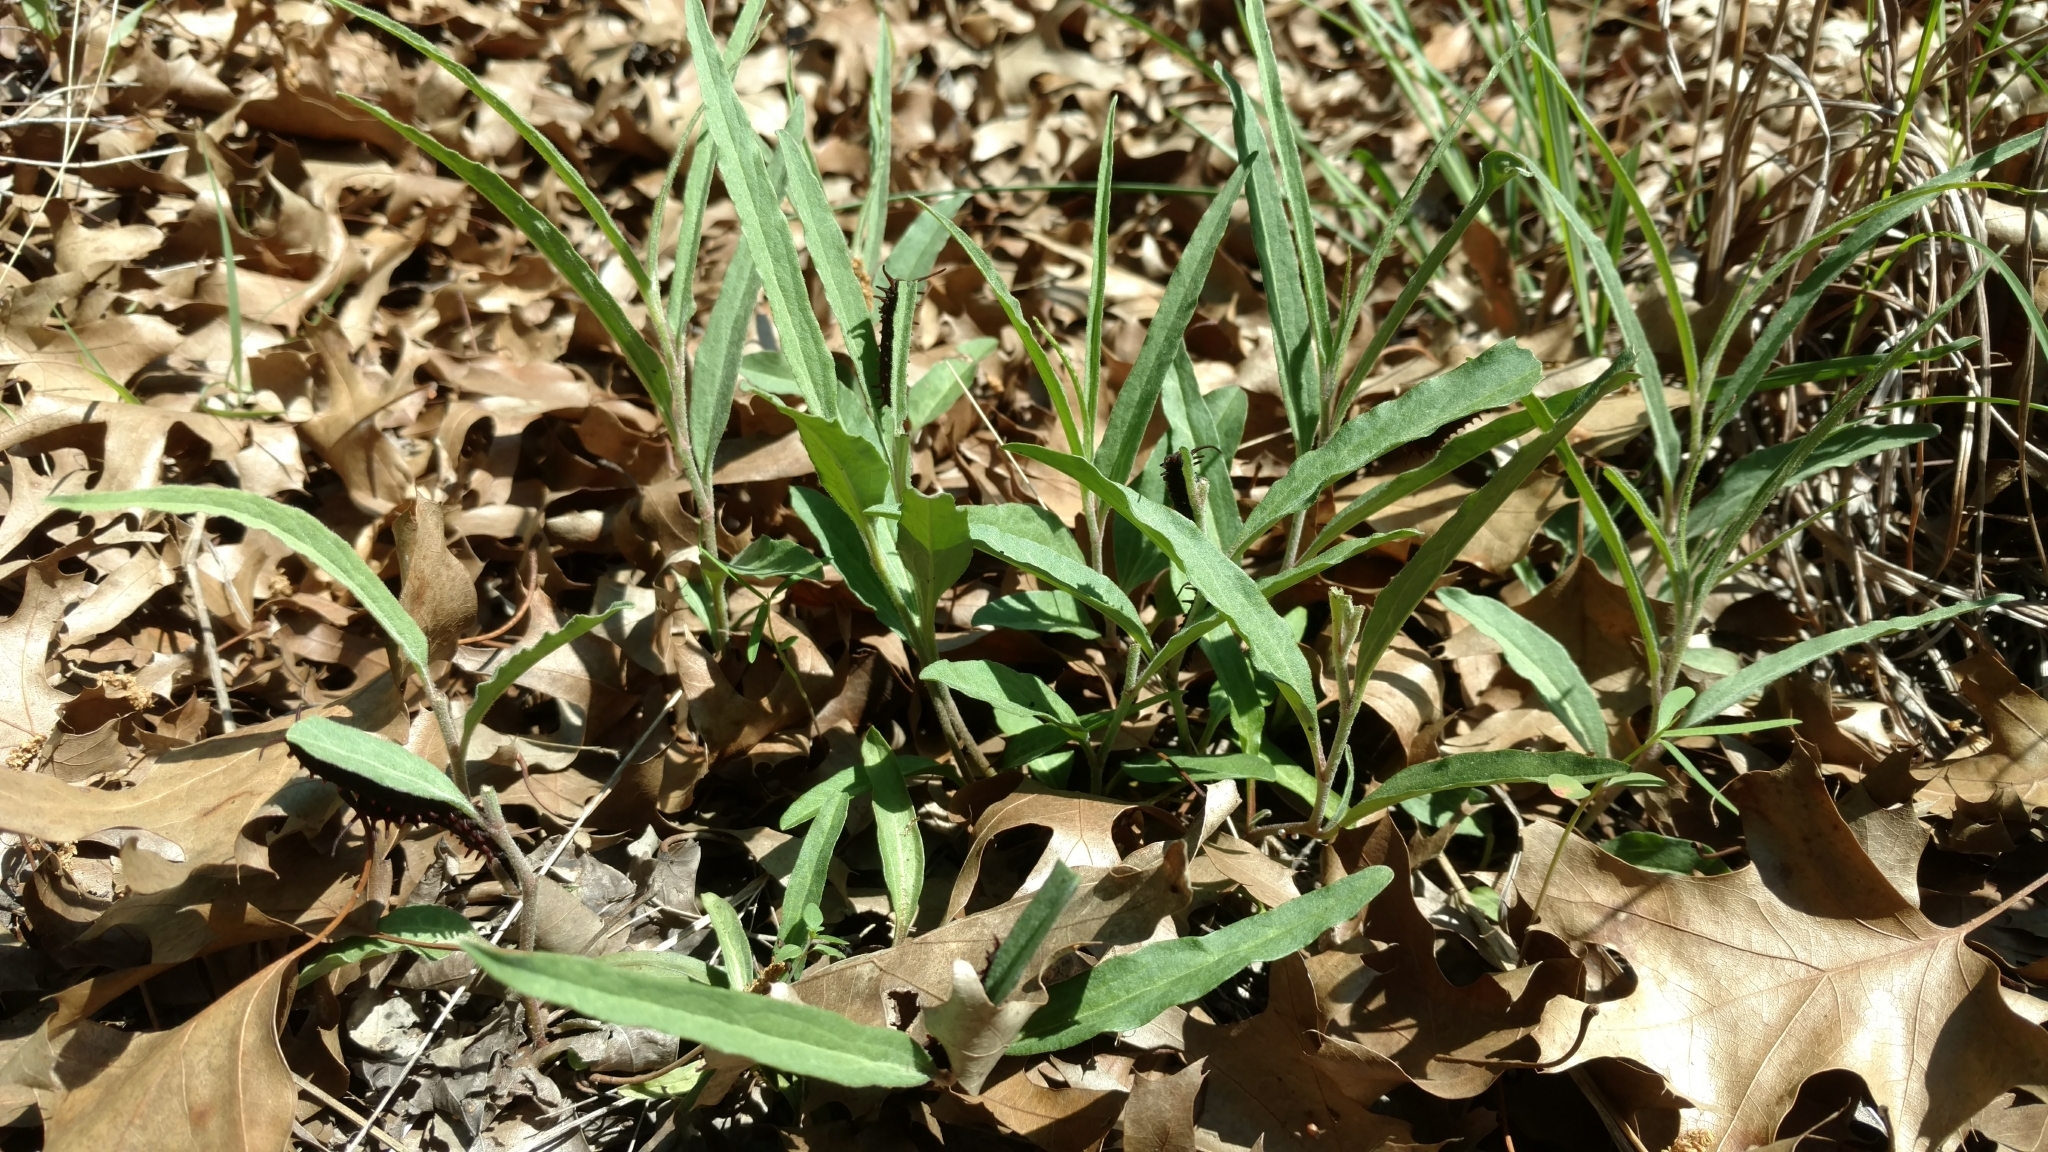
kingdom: Plantae
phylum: Tracheophyta
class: Magnoliopsida
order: Piperales
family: Aristolochiaceae
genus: Aristolochia
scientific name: Aristolochia erecta
